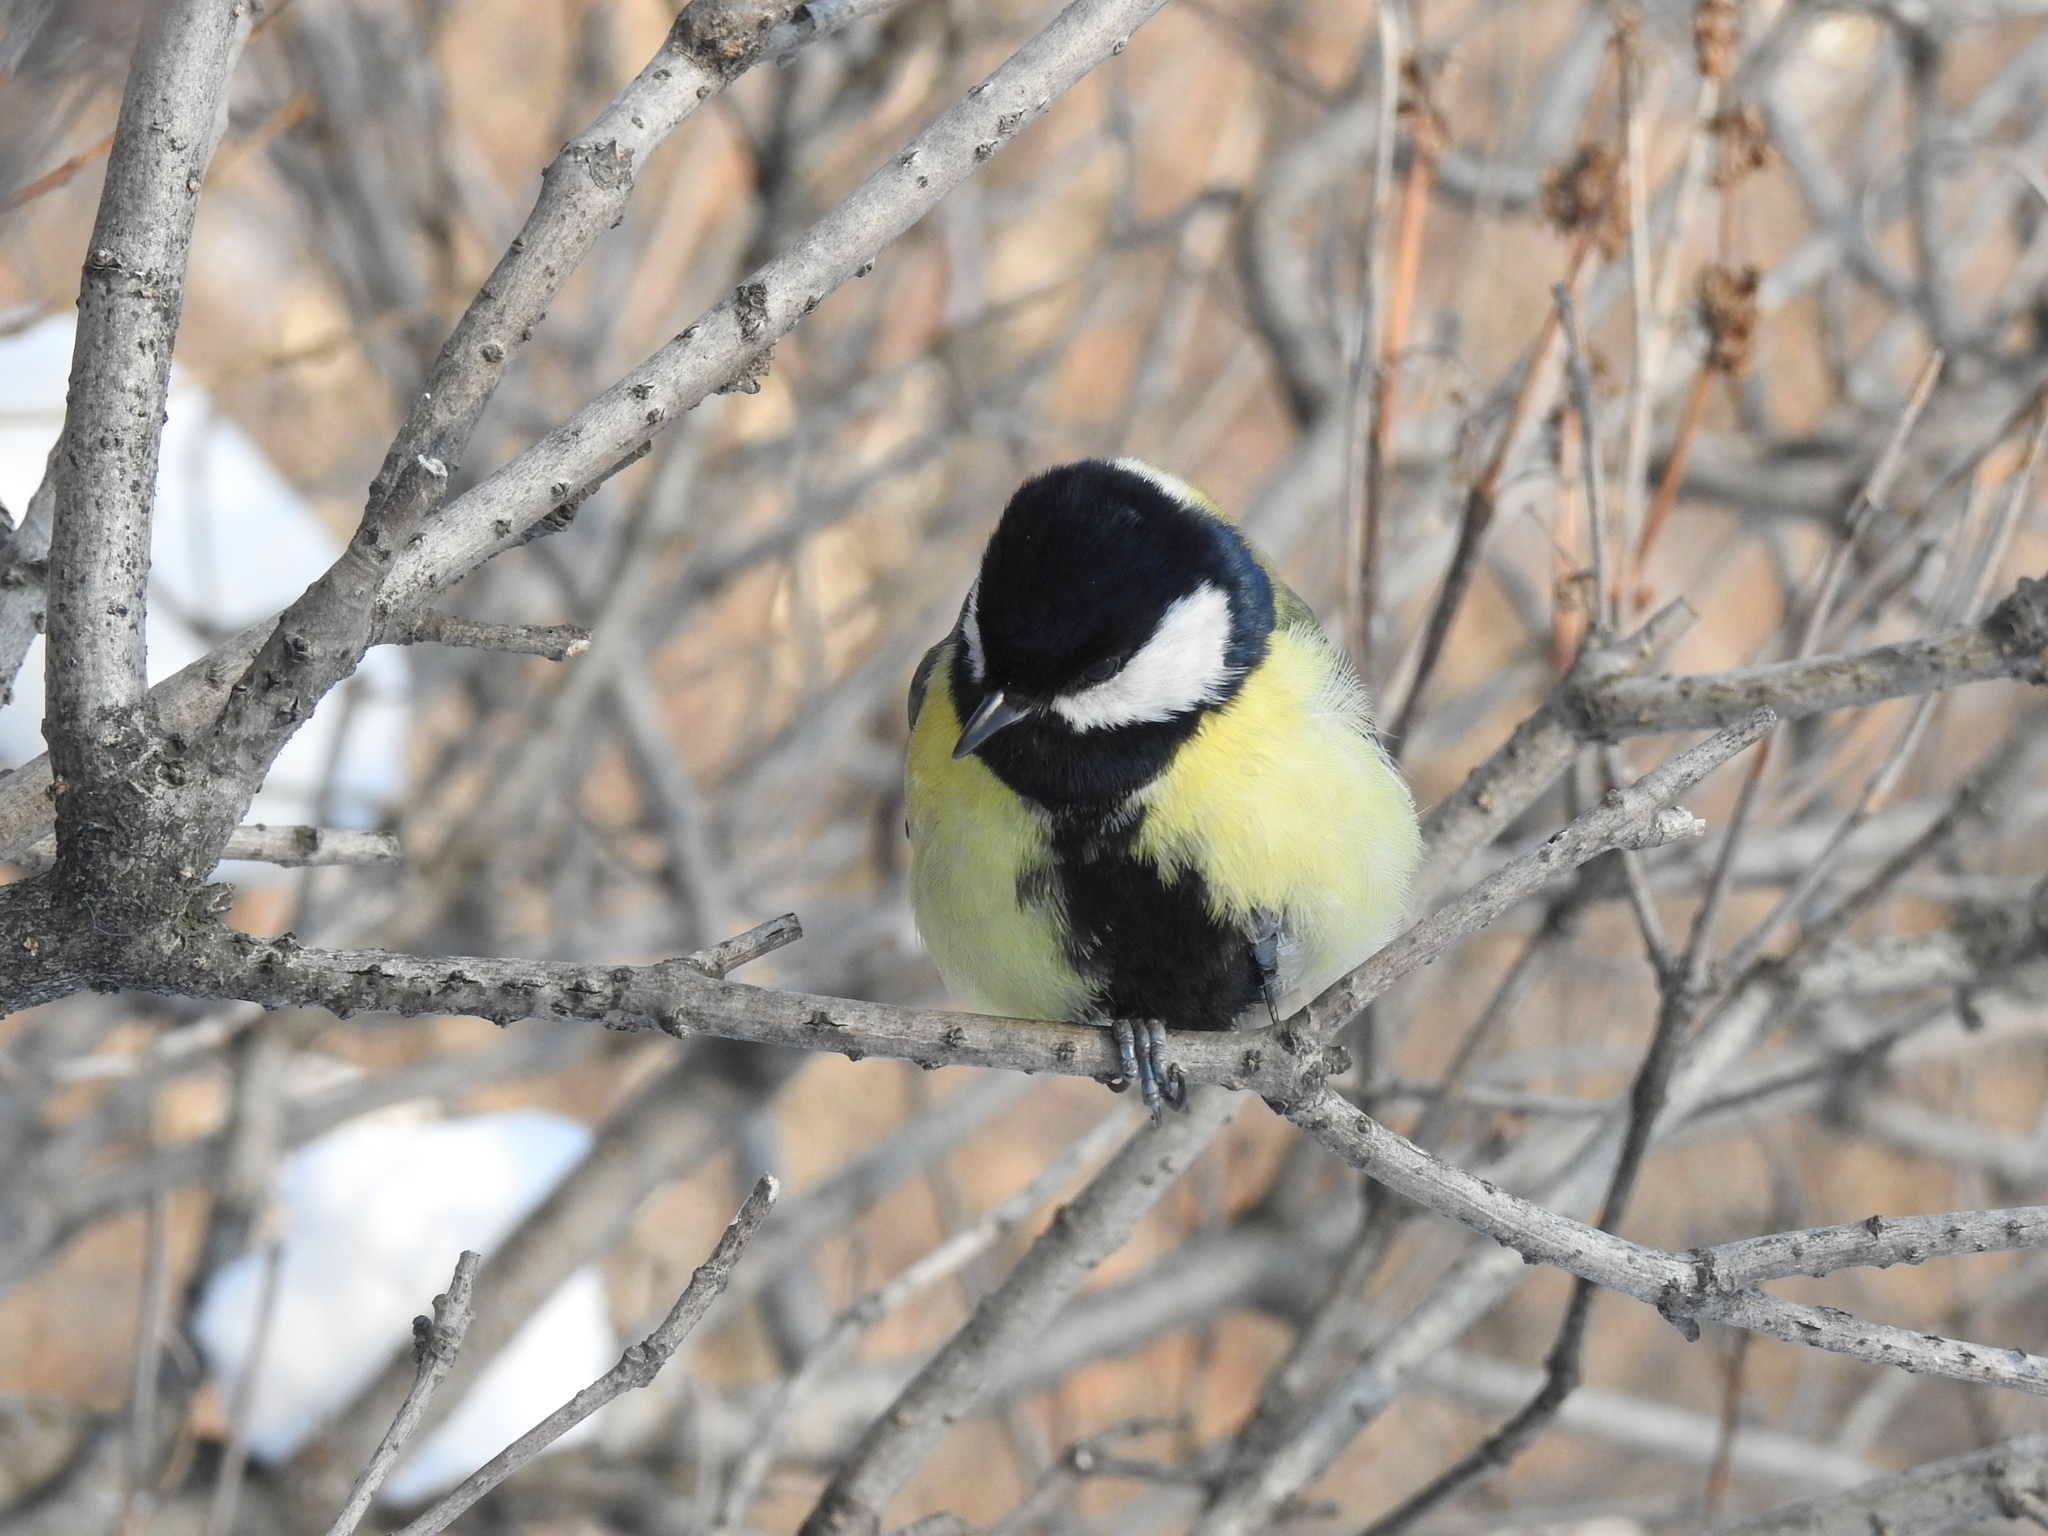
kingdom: Animalia
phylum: Chordata
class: Aves
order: Passeriformes
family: Paridae
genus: Parus
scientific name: Parus major
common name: Great tit
